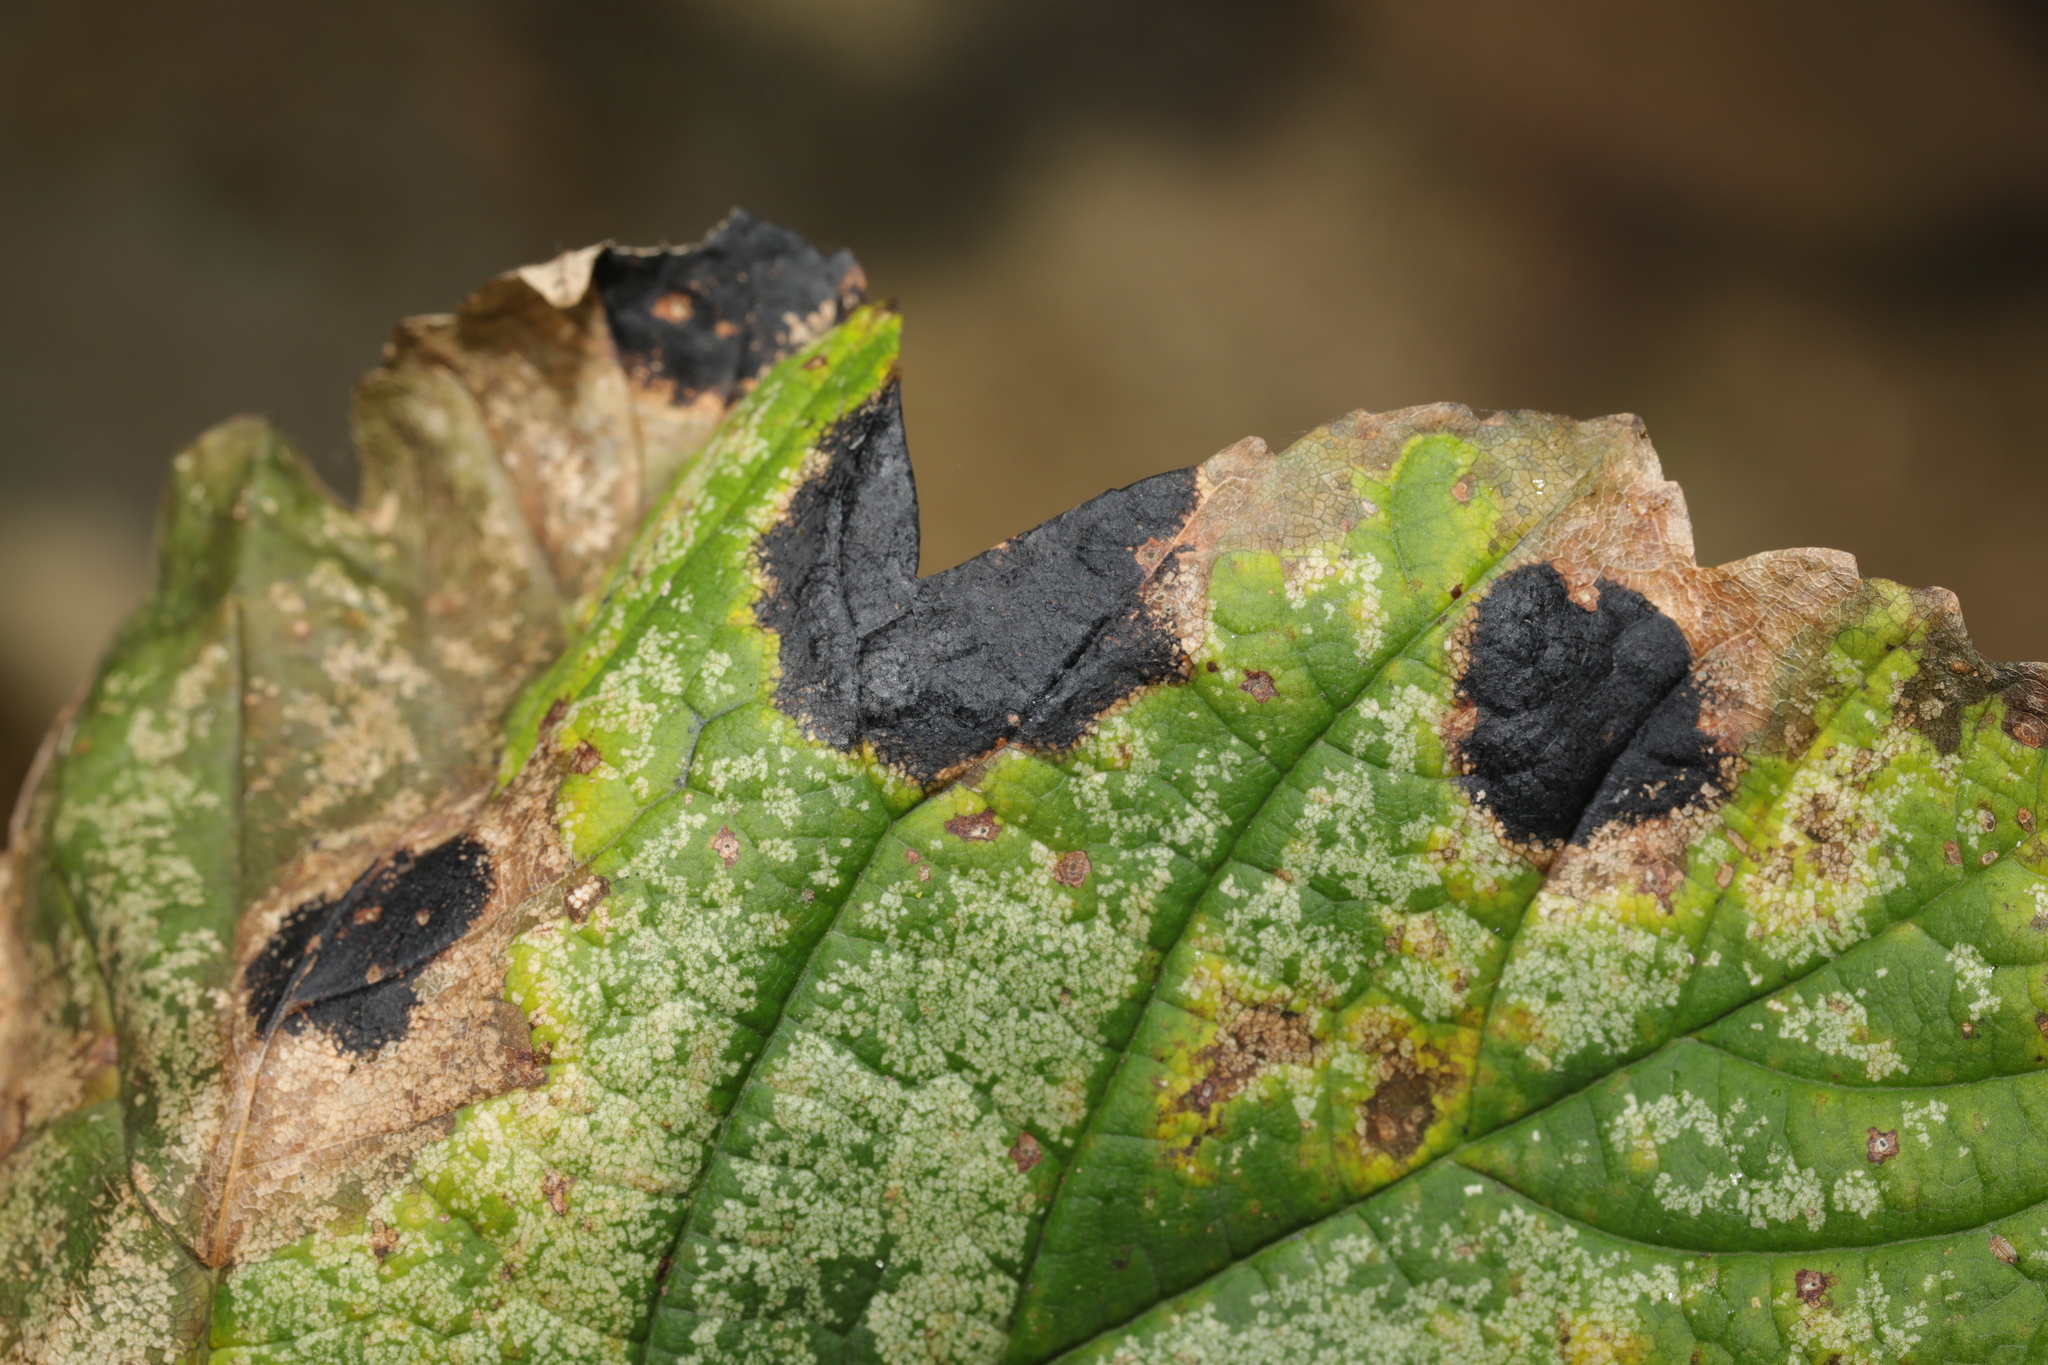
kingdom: Fungi
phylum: Ascomycota
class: Leotiomycetes
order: Rhytismatales
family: Rhytismataceae
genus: Rhytisma
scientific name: Rhytisma acerinum
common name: European tar spot
